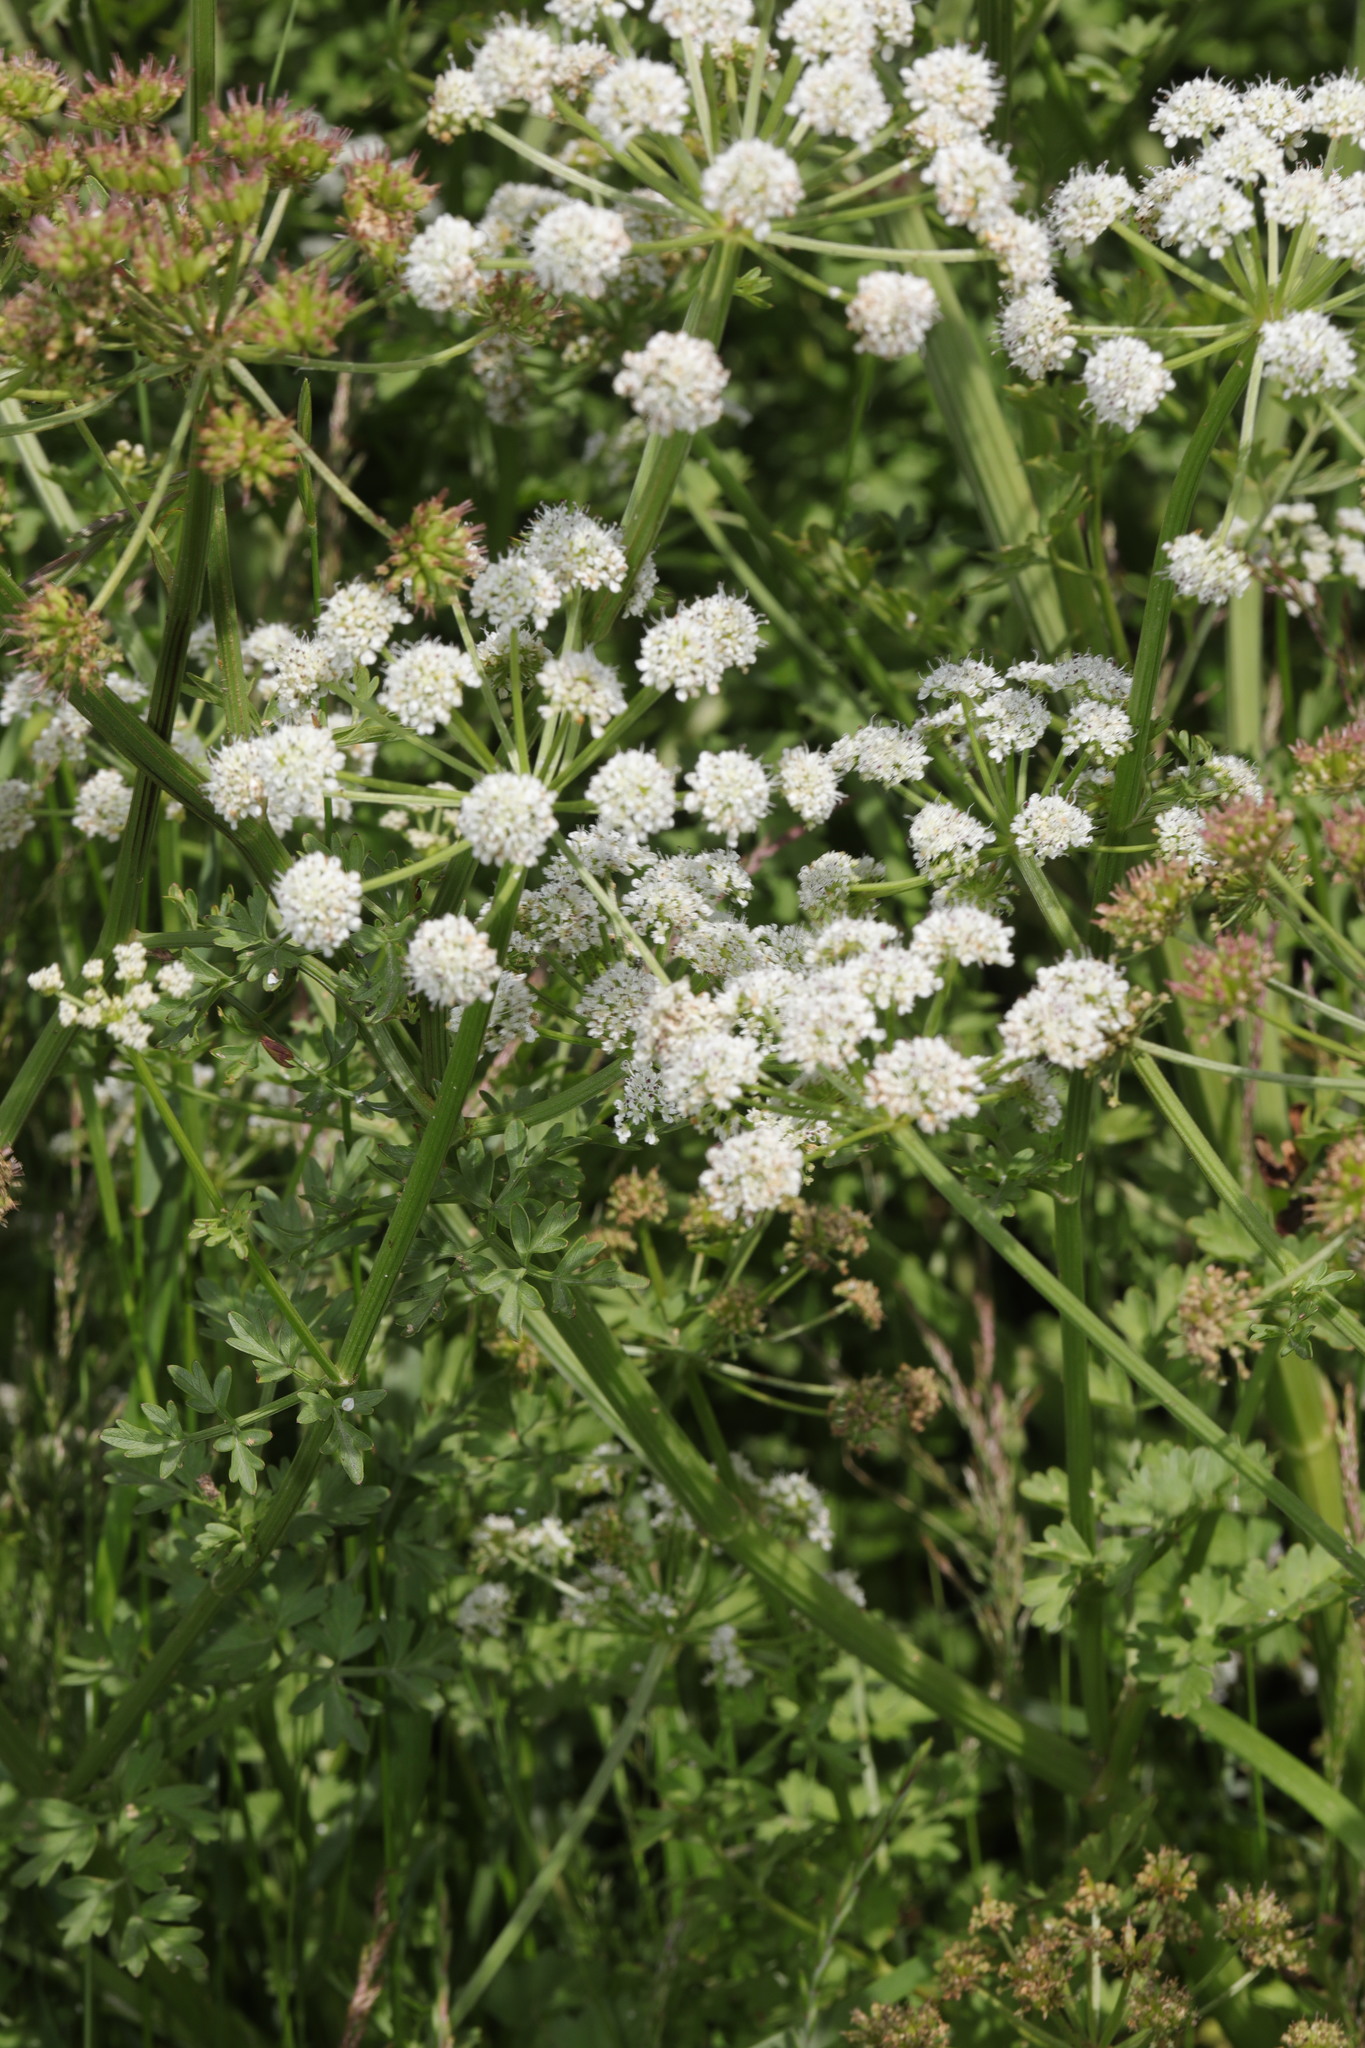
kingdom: Plantae
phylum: Tracheophyta
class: Magnoliopsida
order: Apiales
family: Apiaceae
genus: Oenanthe
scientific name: Oenanthe crocata
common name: Hemlock water-dropwort
